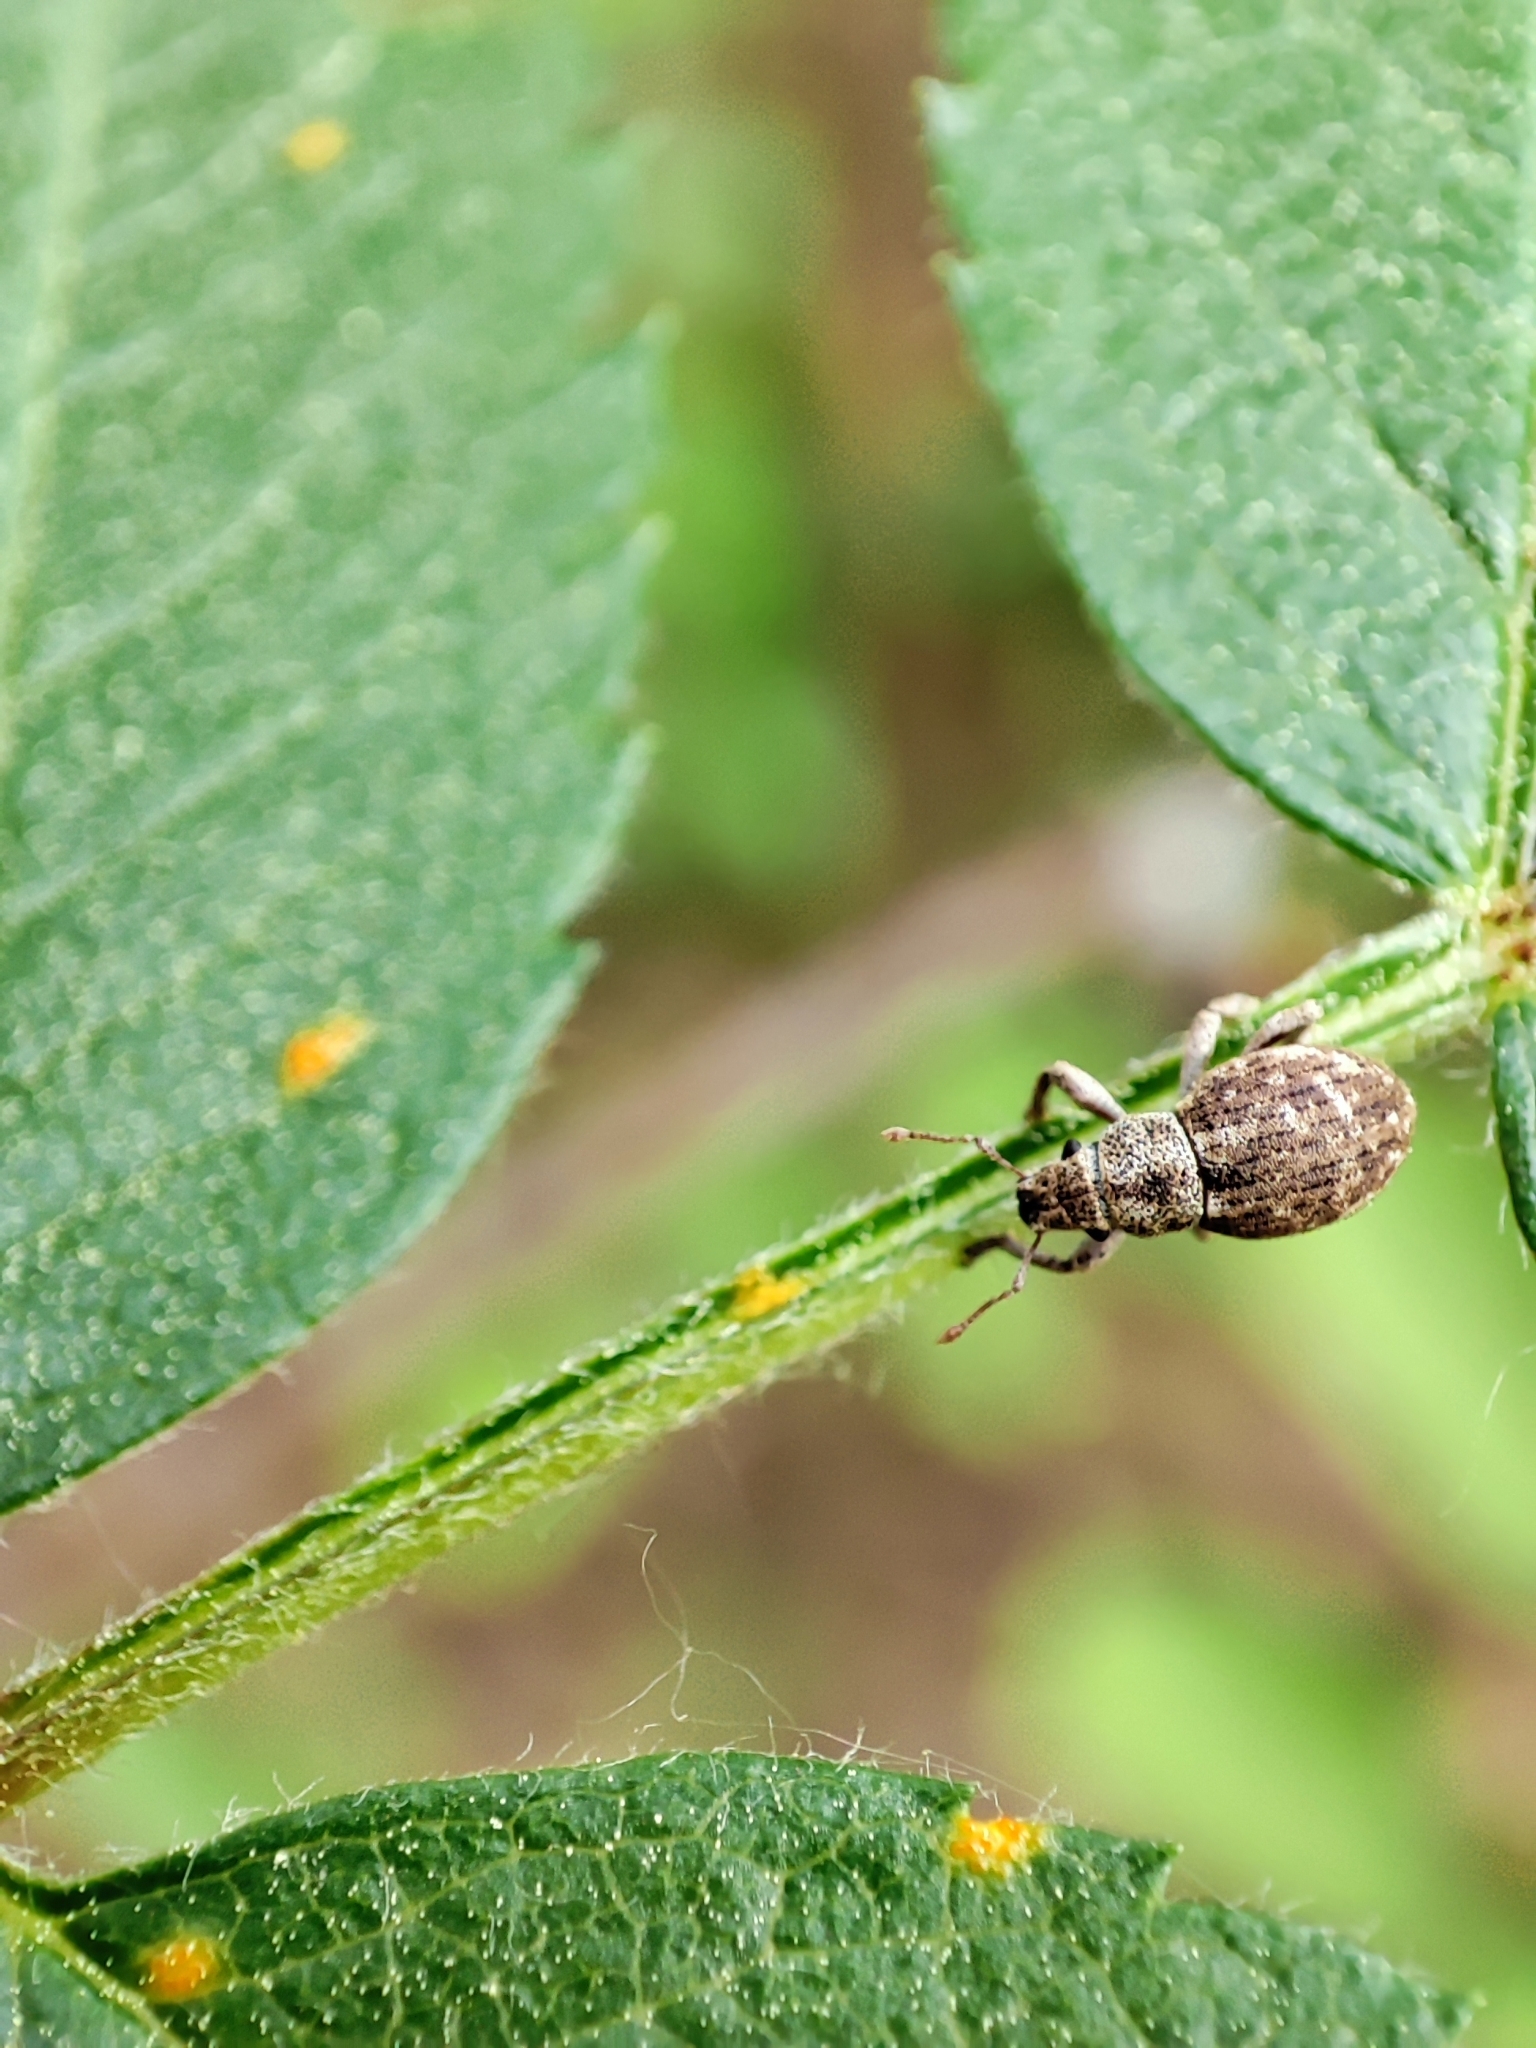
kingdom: Animalia
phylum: Arthropoda
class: Insecta
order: Coleoptera
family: Curculionidae
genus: Strophosoma
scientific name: Strophosoma capitatum
